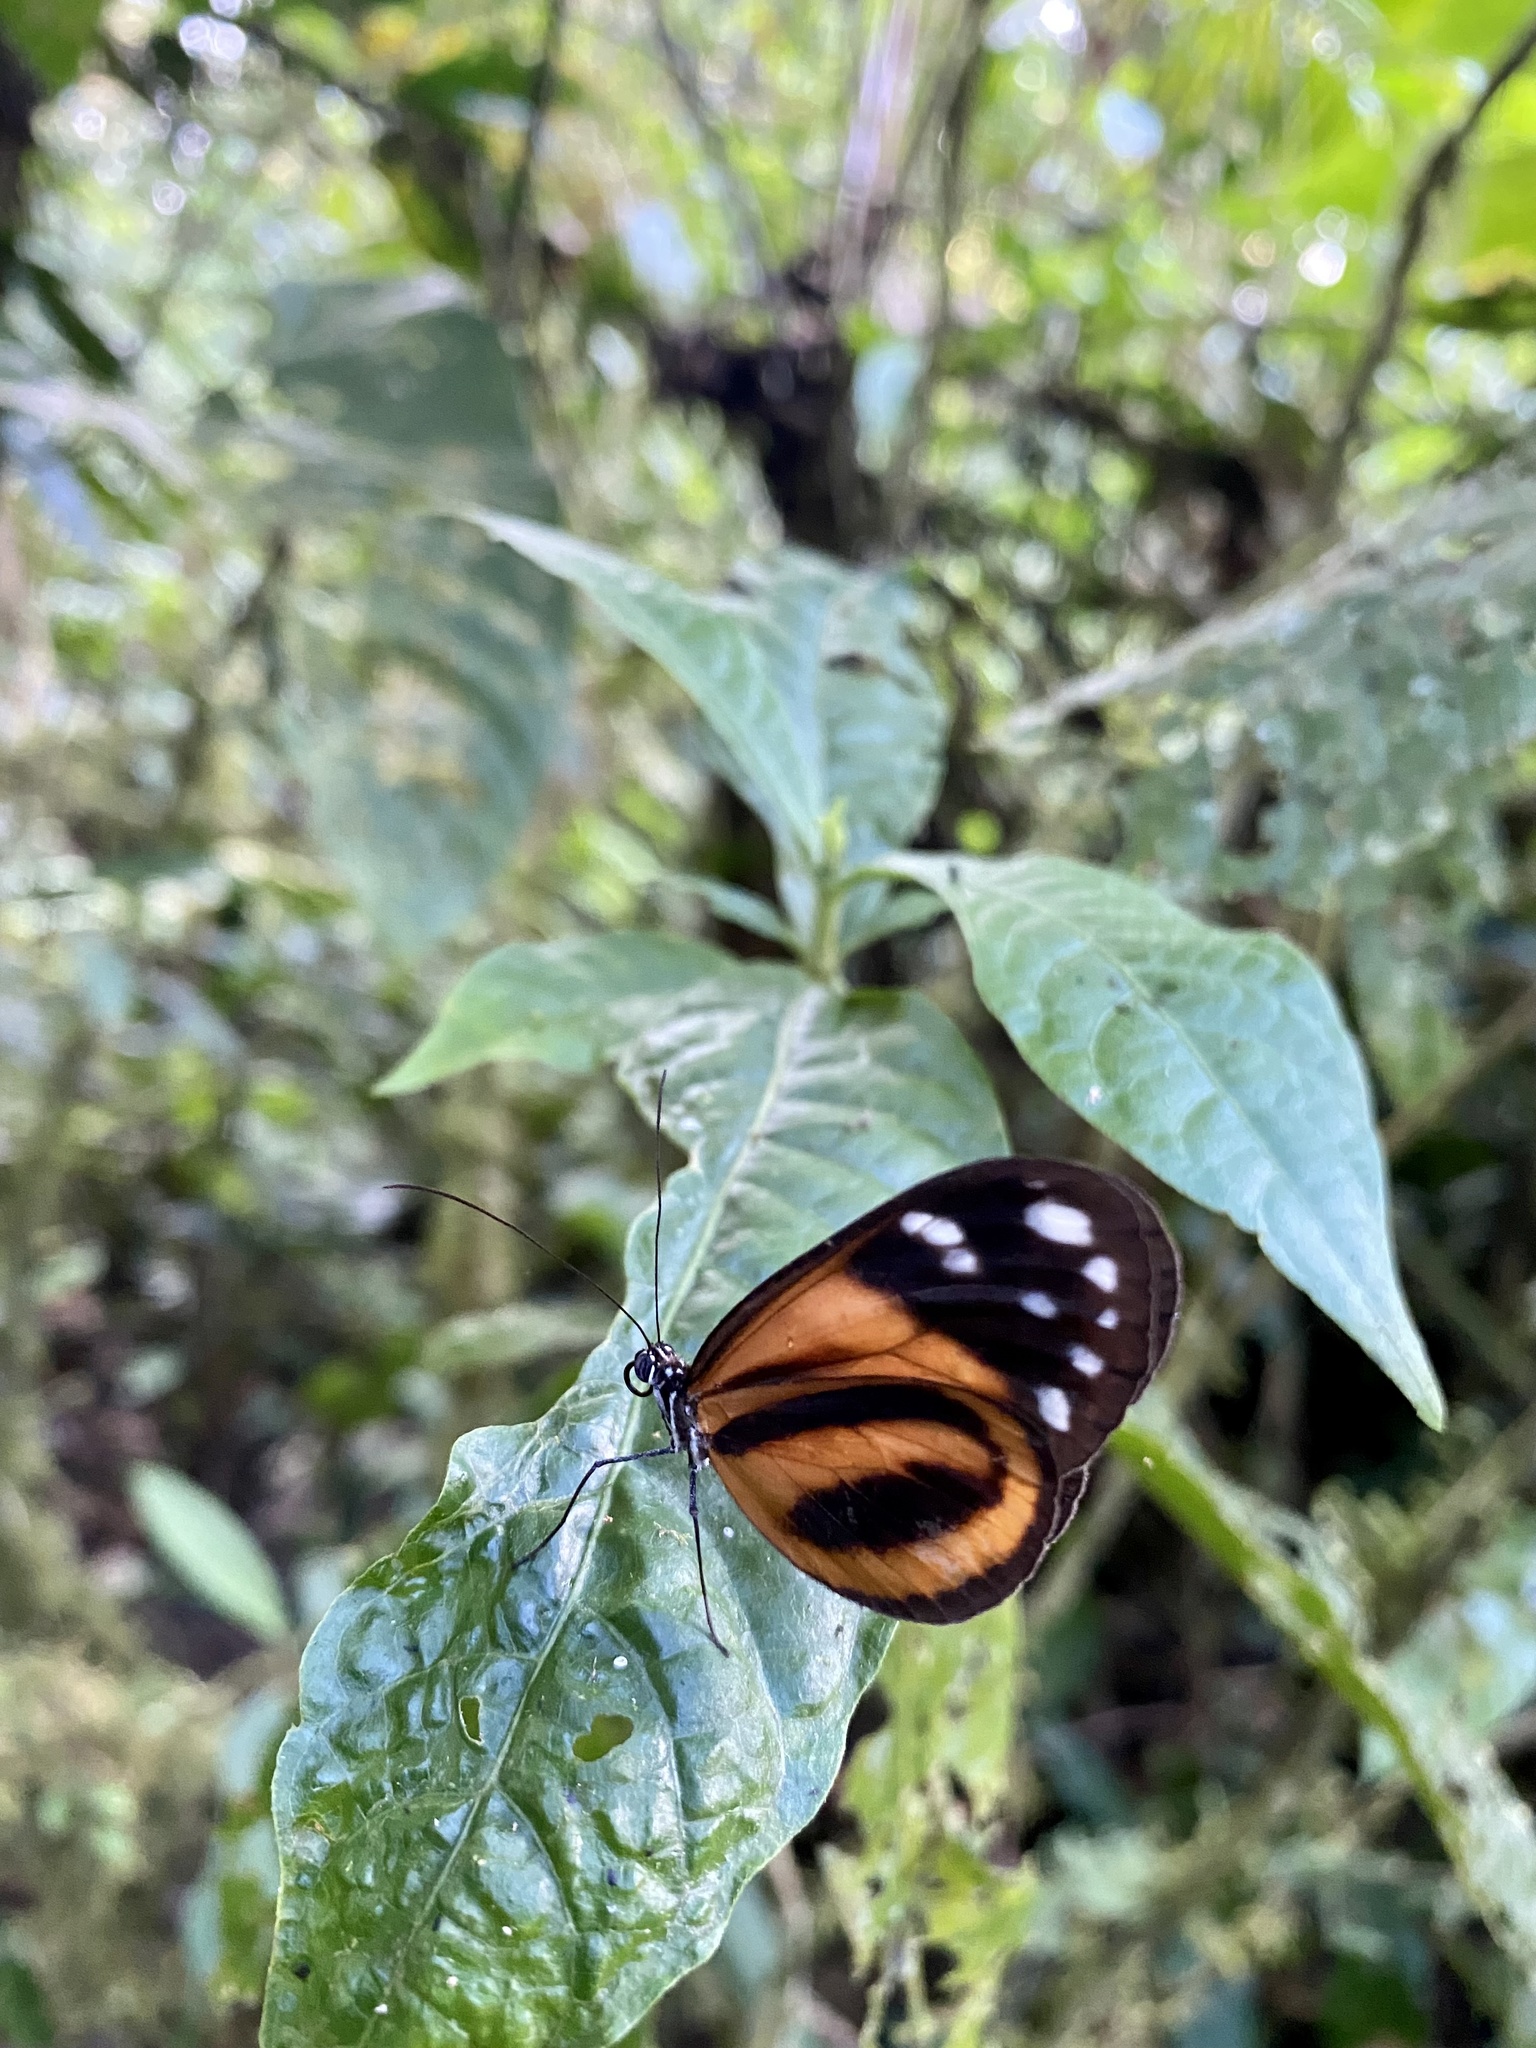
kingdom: Animalia
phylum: Arthropoda
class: Insecta
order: Lepidoptera
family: Nymphalidae
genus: Hyposcada
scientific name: Hyposcada anchiala
